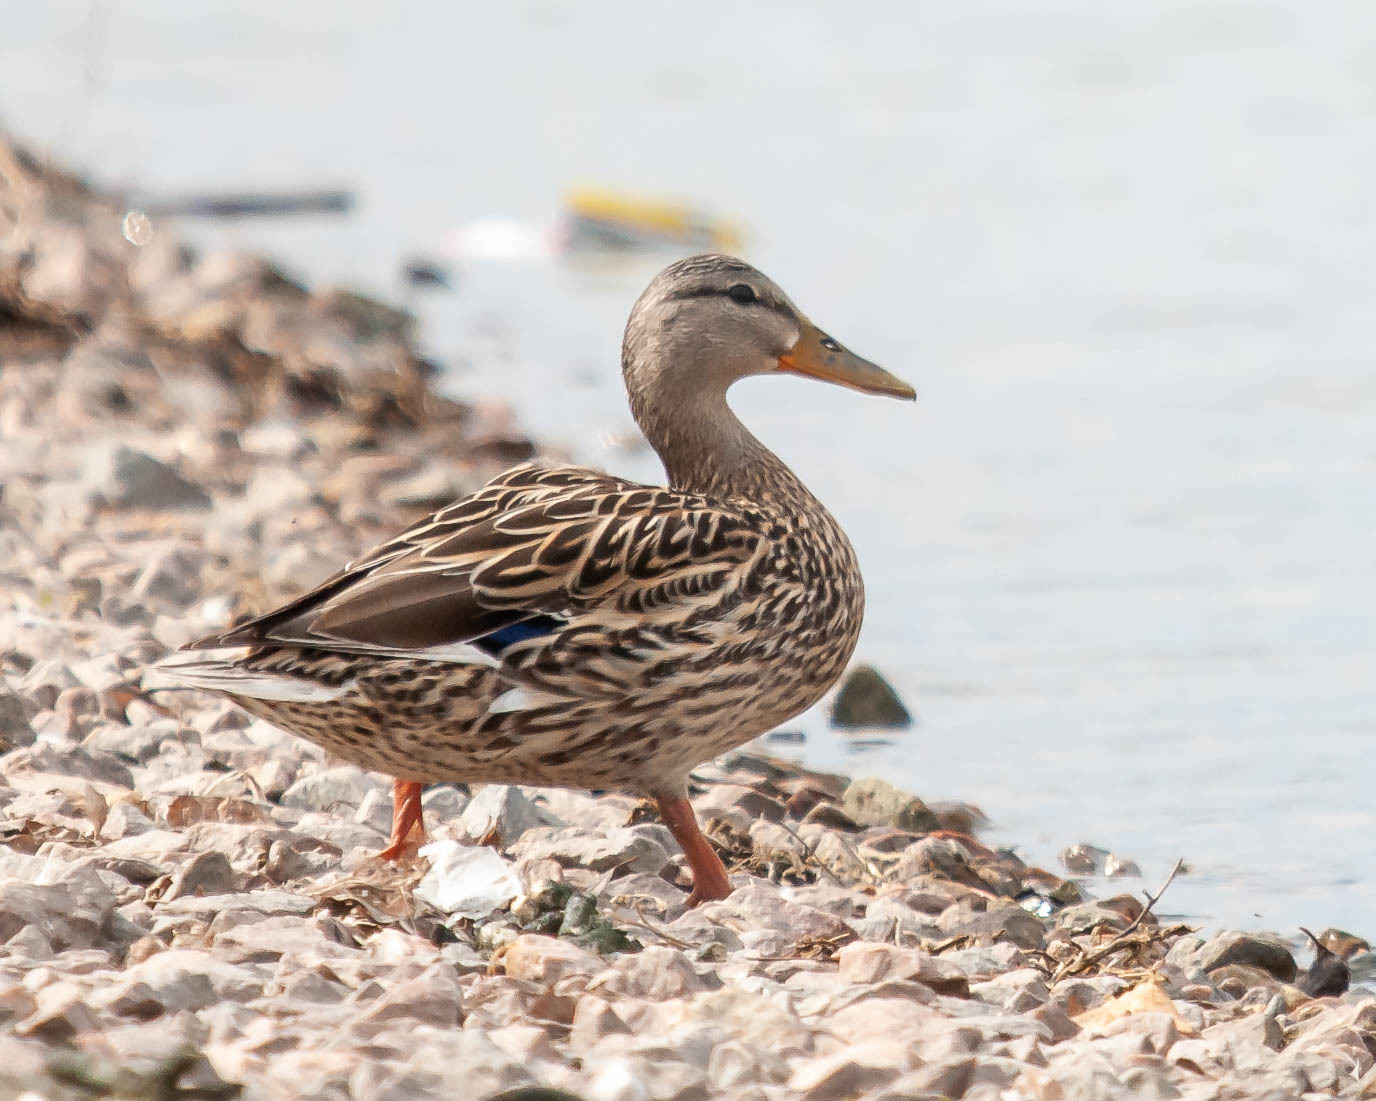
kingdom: Animalia
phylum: Chordata
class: Aves
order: Anseriformes
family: Anatidae
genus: Anas
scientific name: Anas platyrhynchos
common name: Mallard
